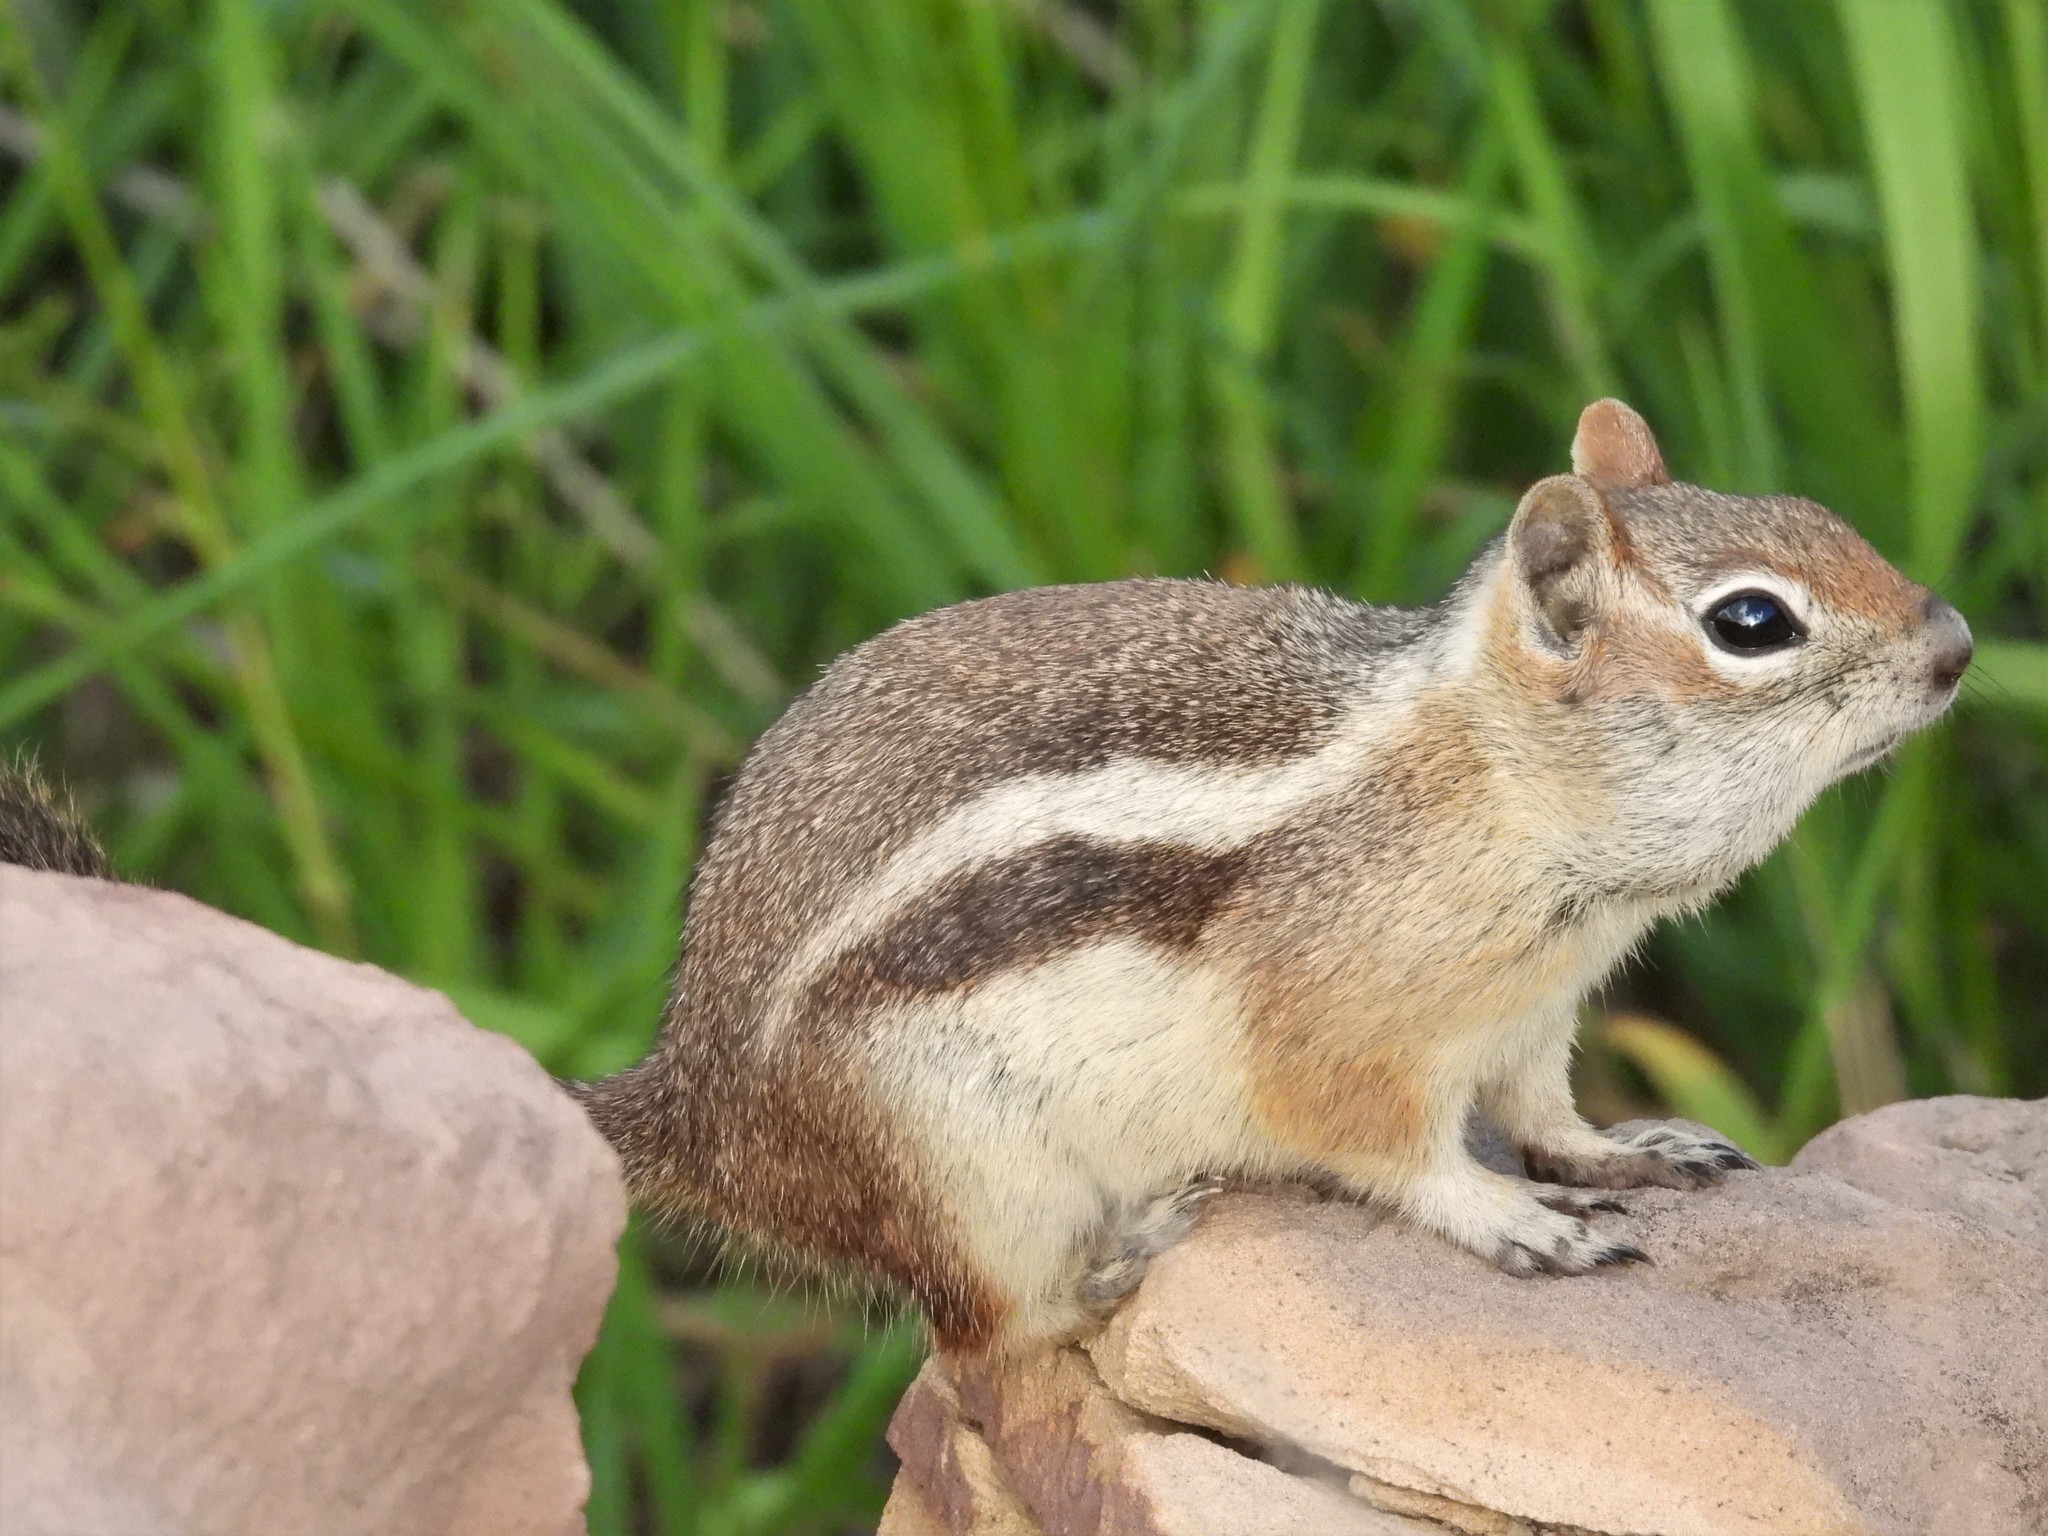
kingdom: Animalia
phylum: Chordata
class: Mammalia
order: Rodentia
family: Sciuridae
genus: Callospermophilus
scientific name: Callospermophilus lateralis
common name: Golden-mantled ground squirrel
